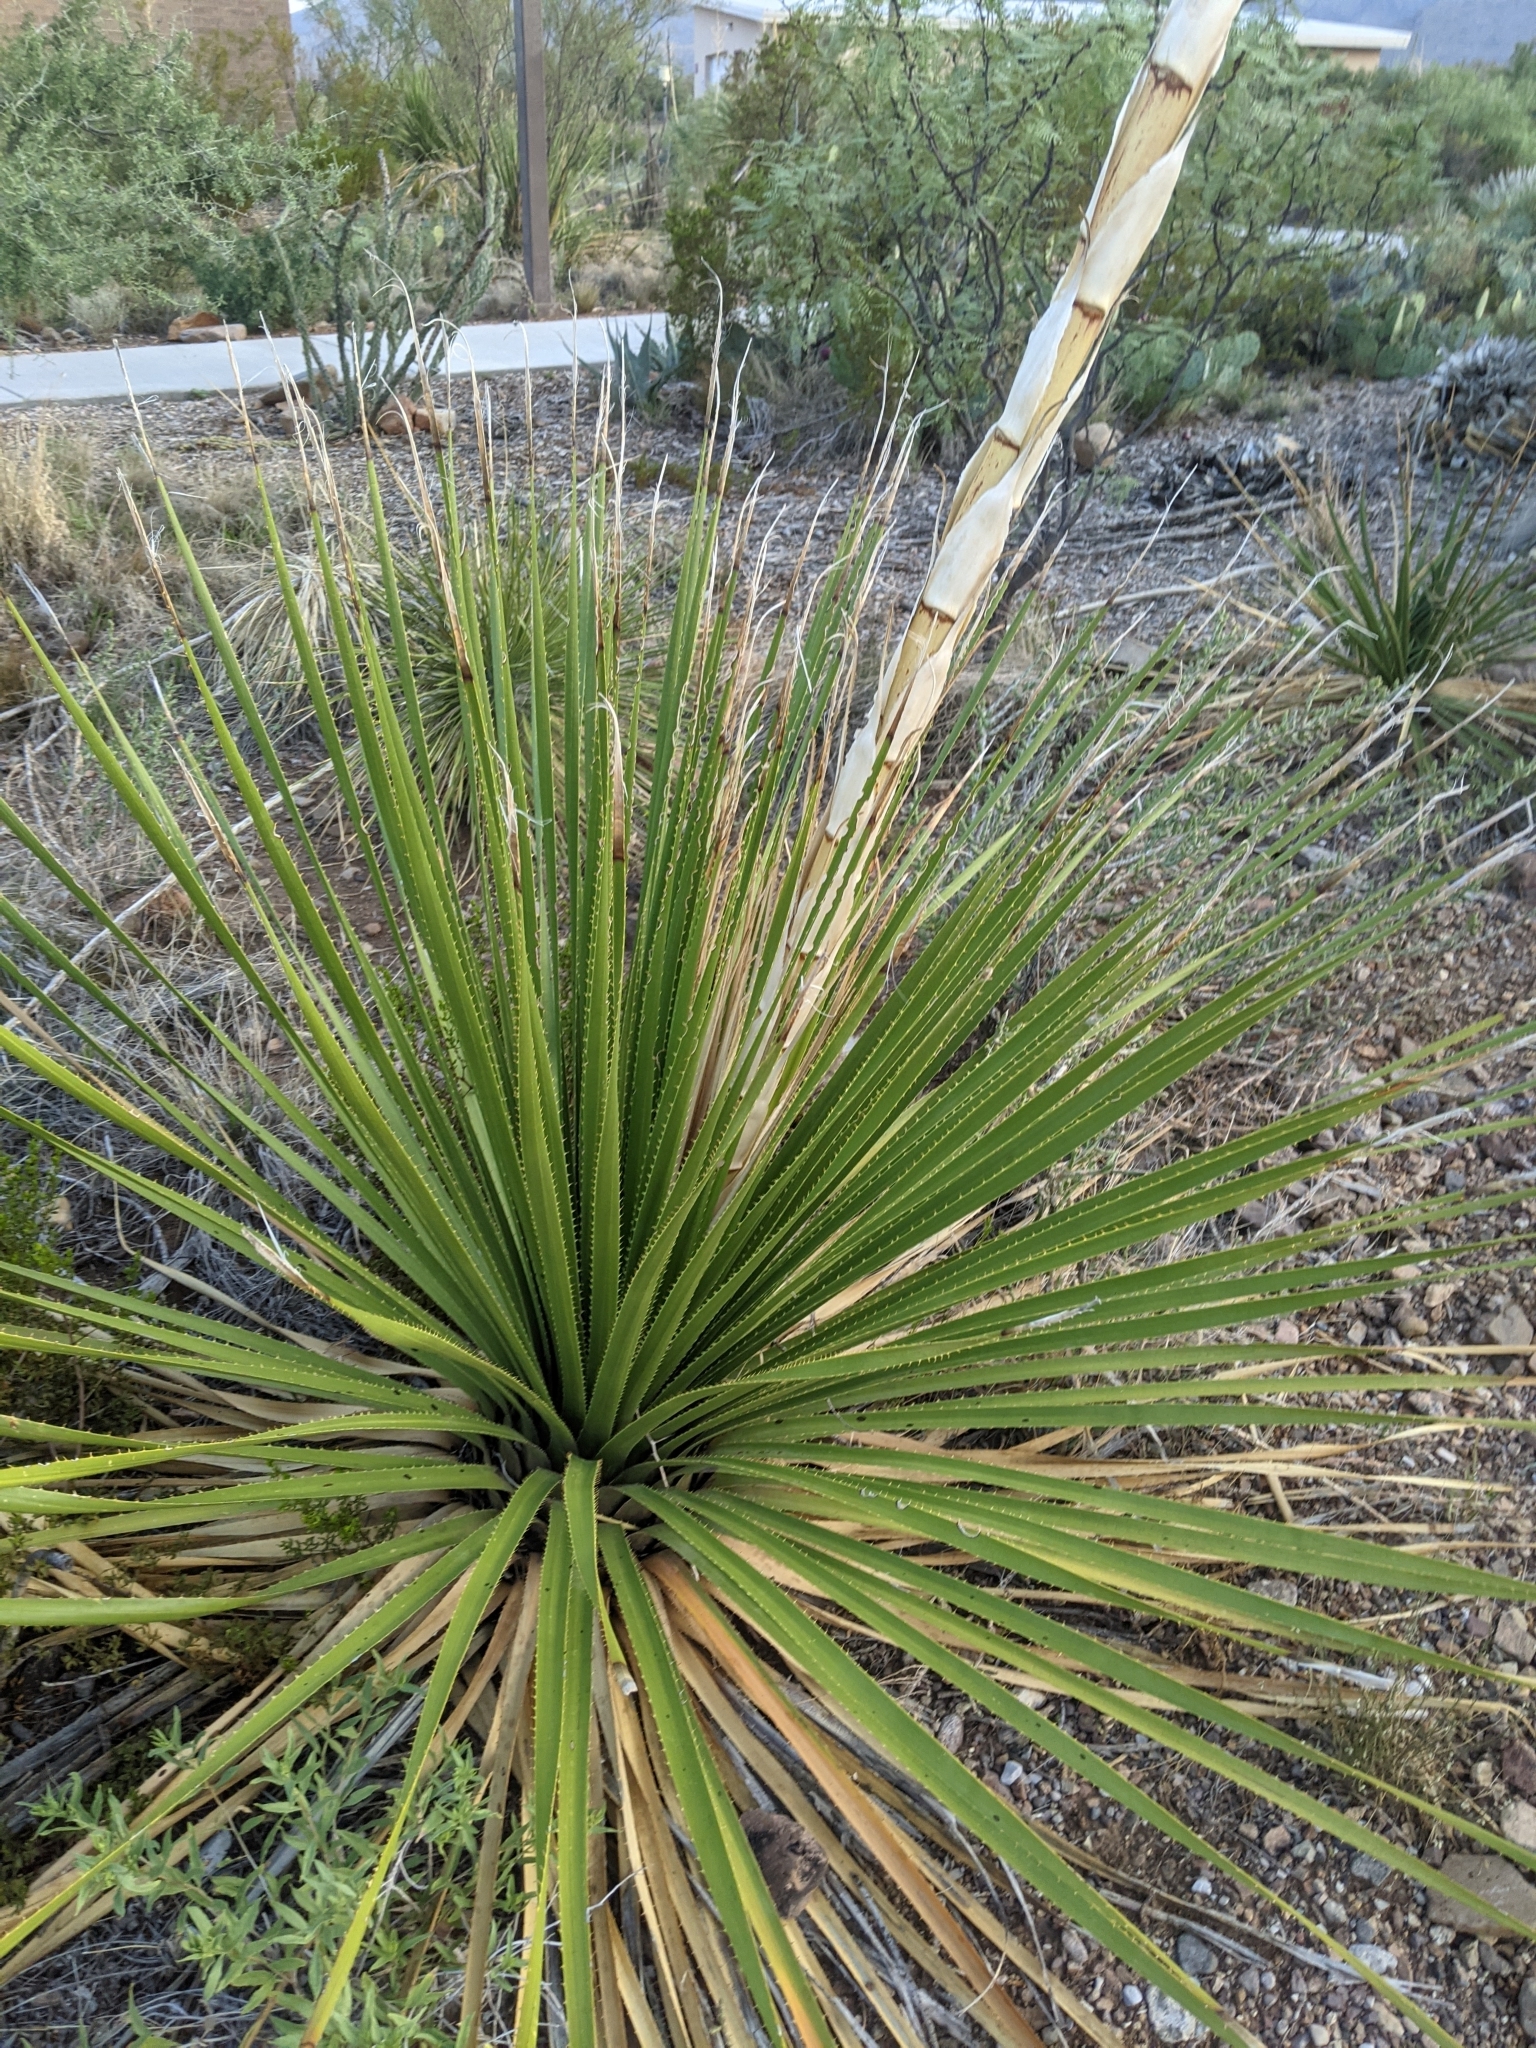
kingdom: Plantae
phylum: Tracheophyta
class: Liliopsida
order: Asparagales
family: Asparagaceae
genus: Dasylirion
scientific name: Dasylirion texanum
